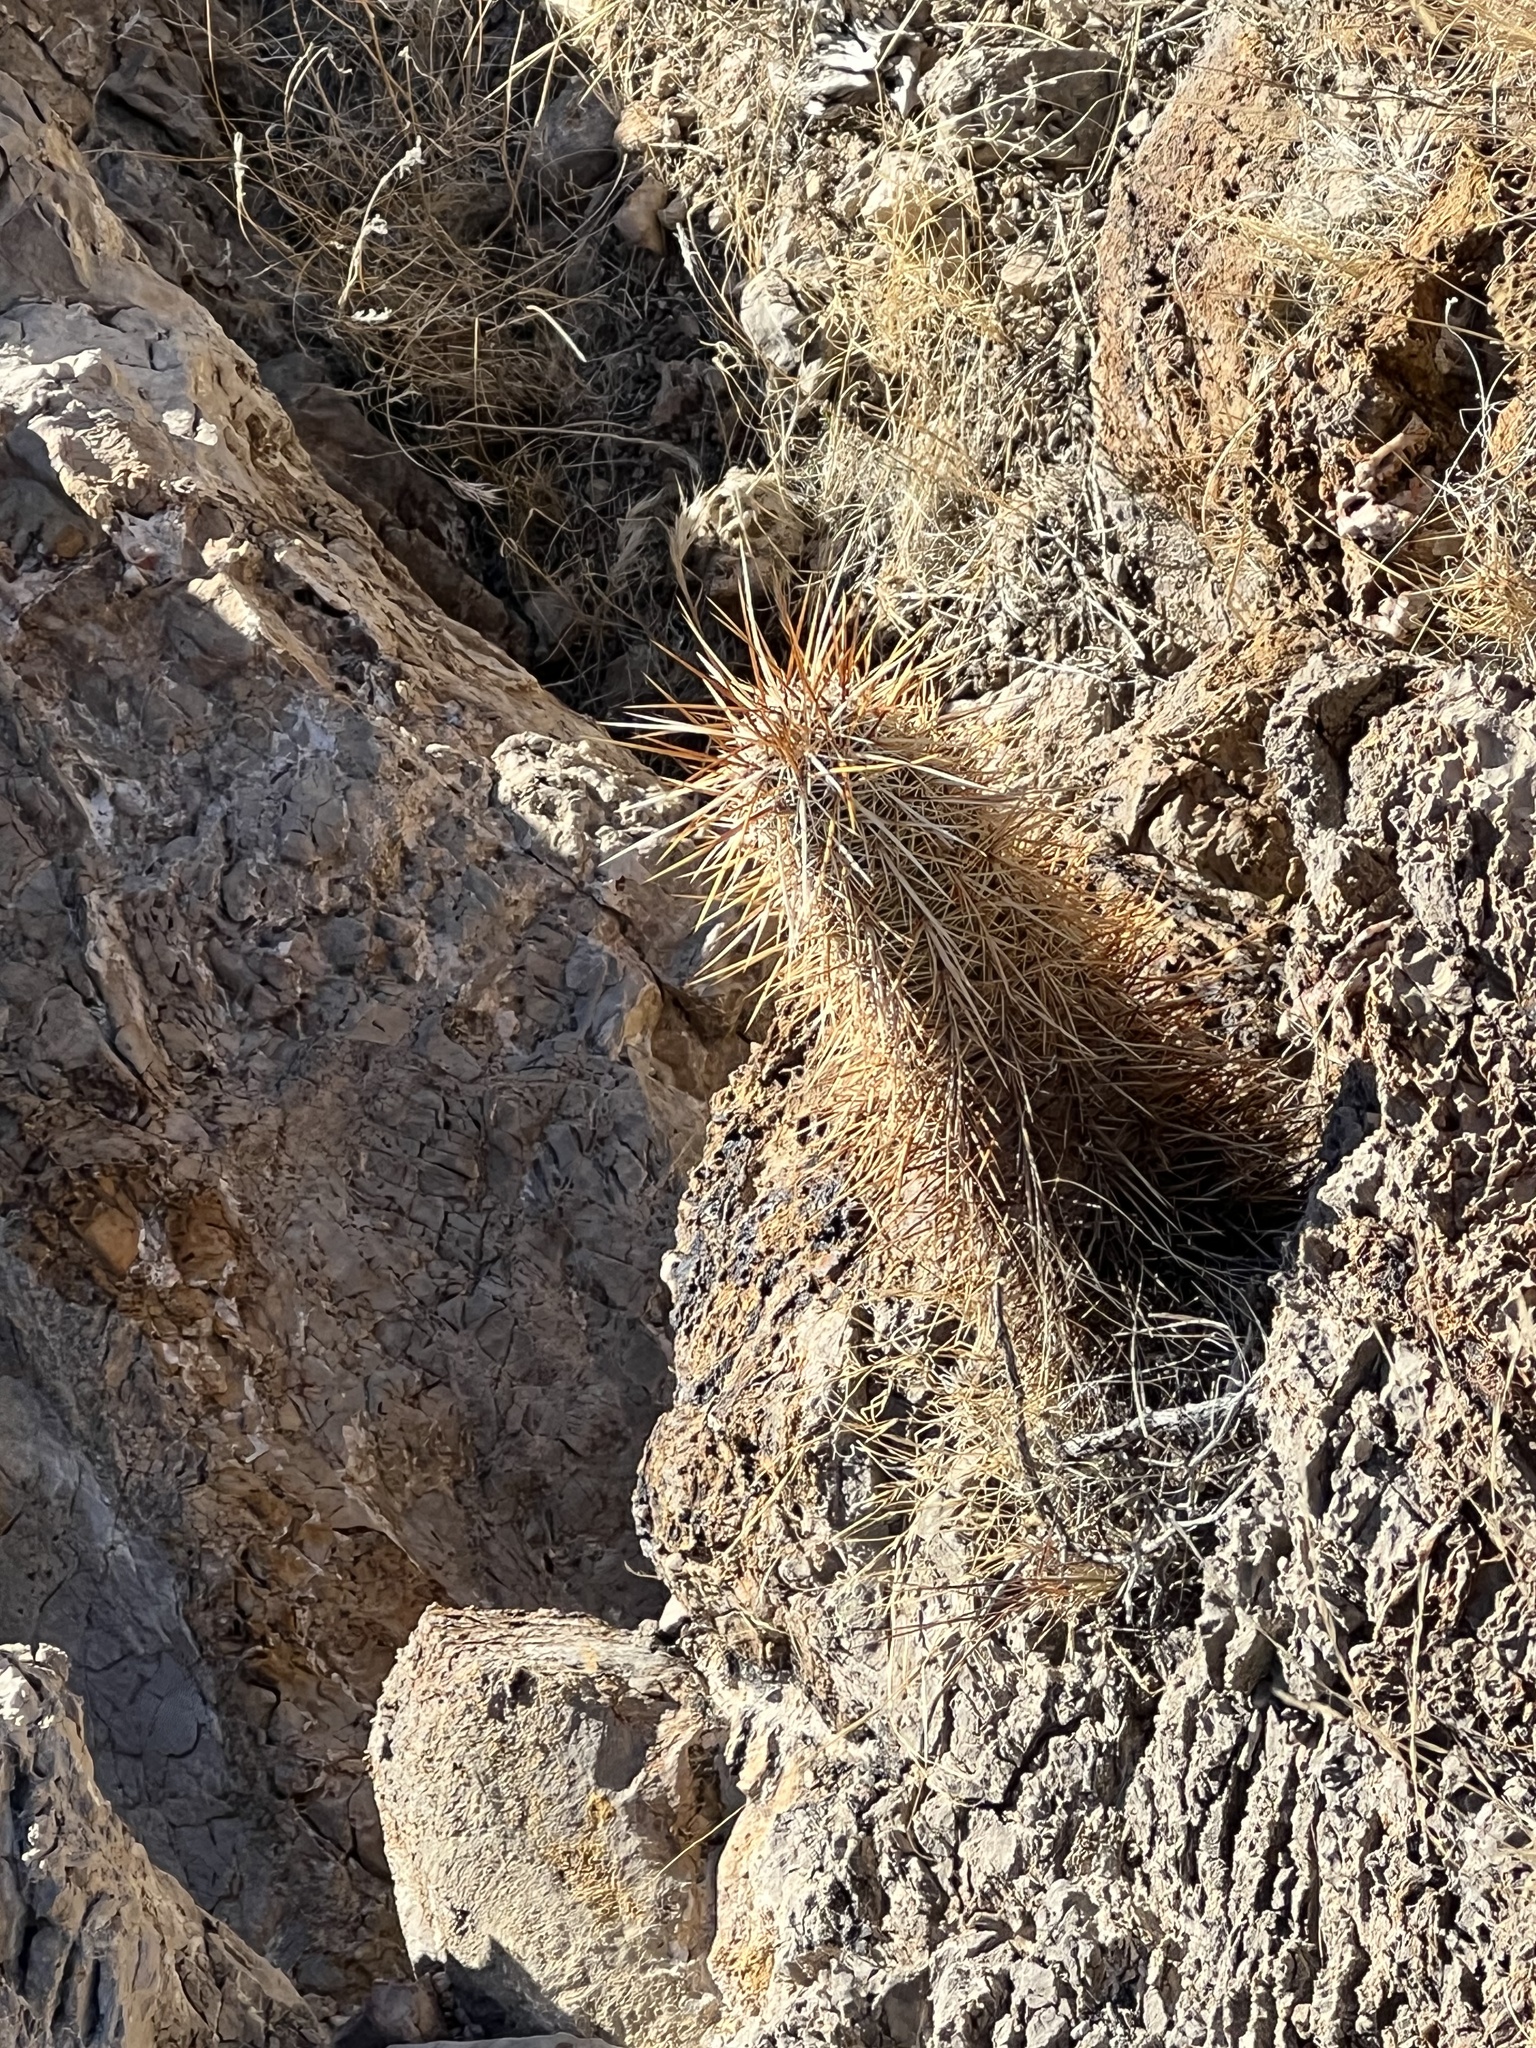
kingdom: Plantae
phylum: Tracheophyta
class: Magnoliopsida
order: Caryophyllales
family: Cactaceae
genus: Echinocereus
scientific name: Echinocereus engelmannii
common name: Engelmann's hedgehog cactus
